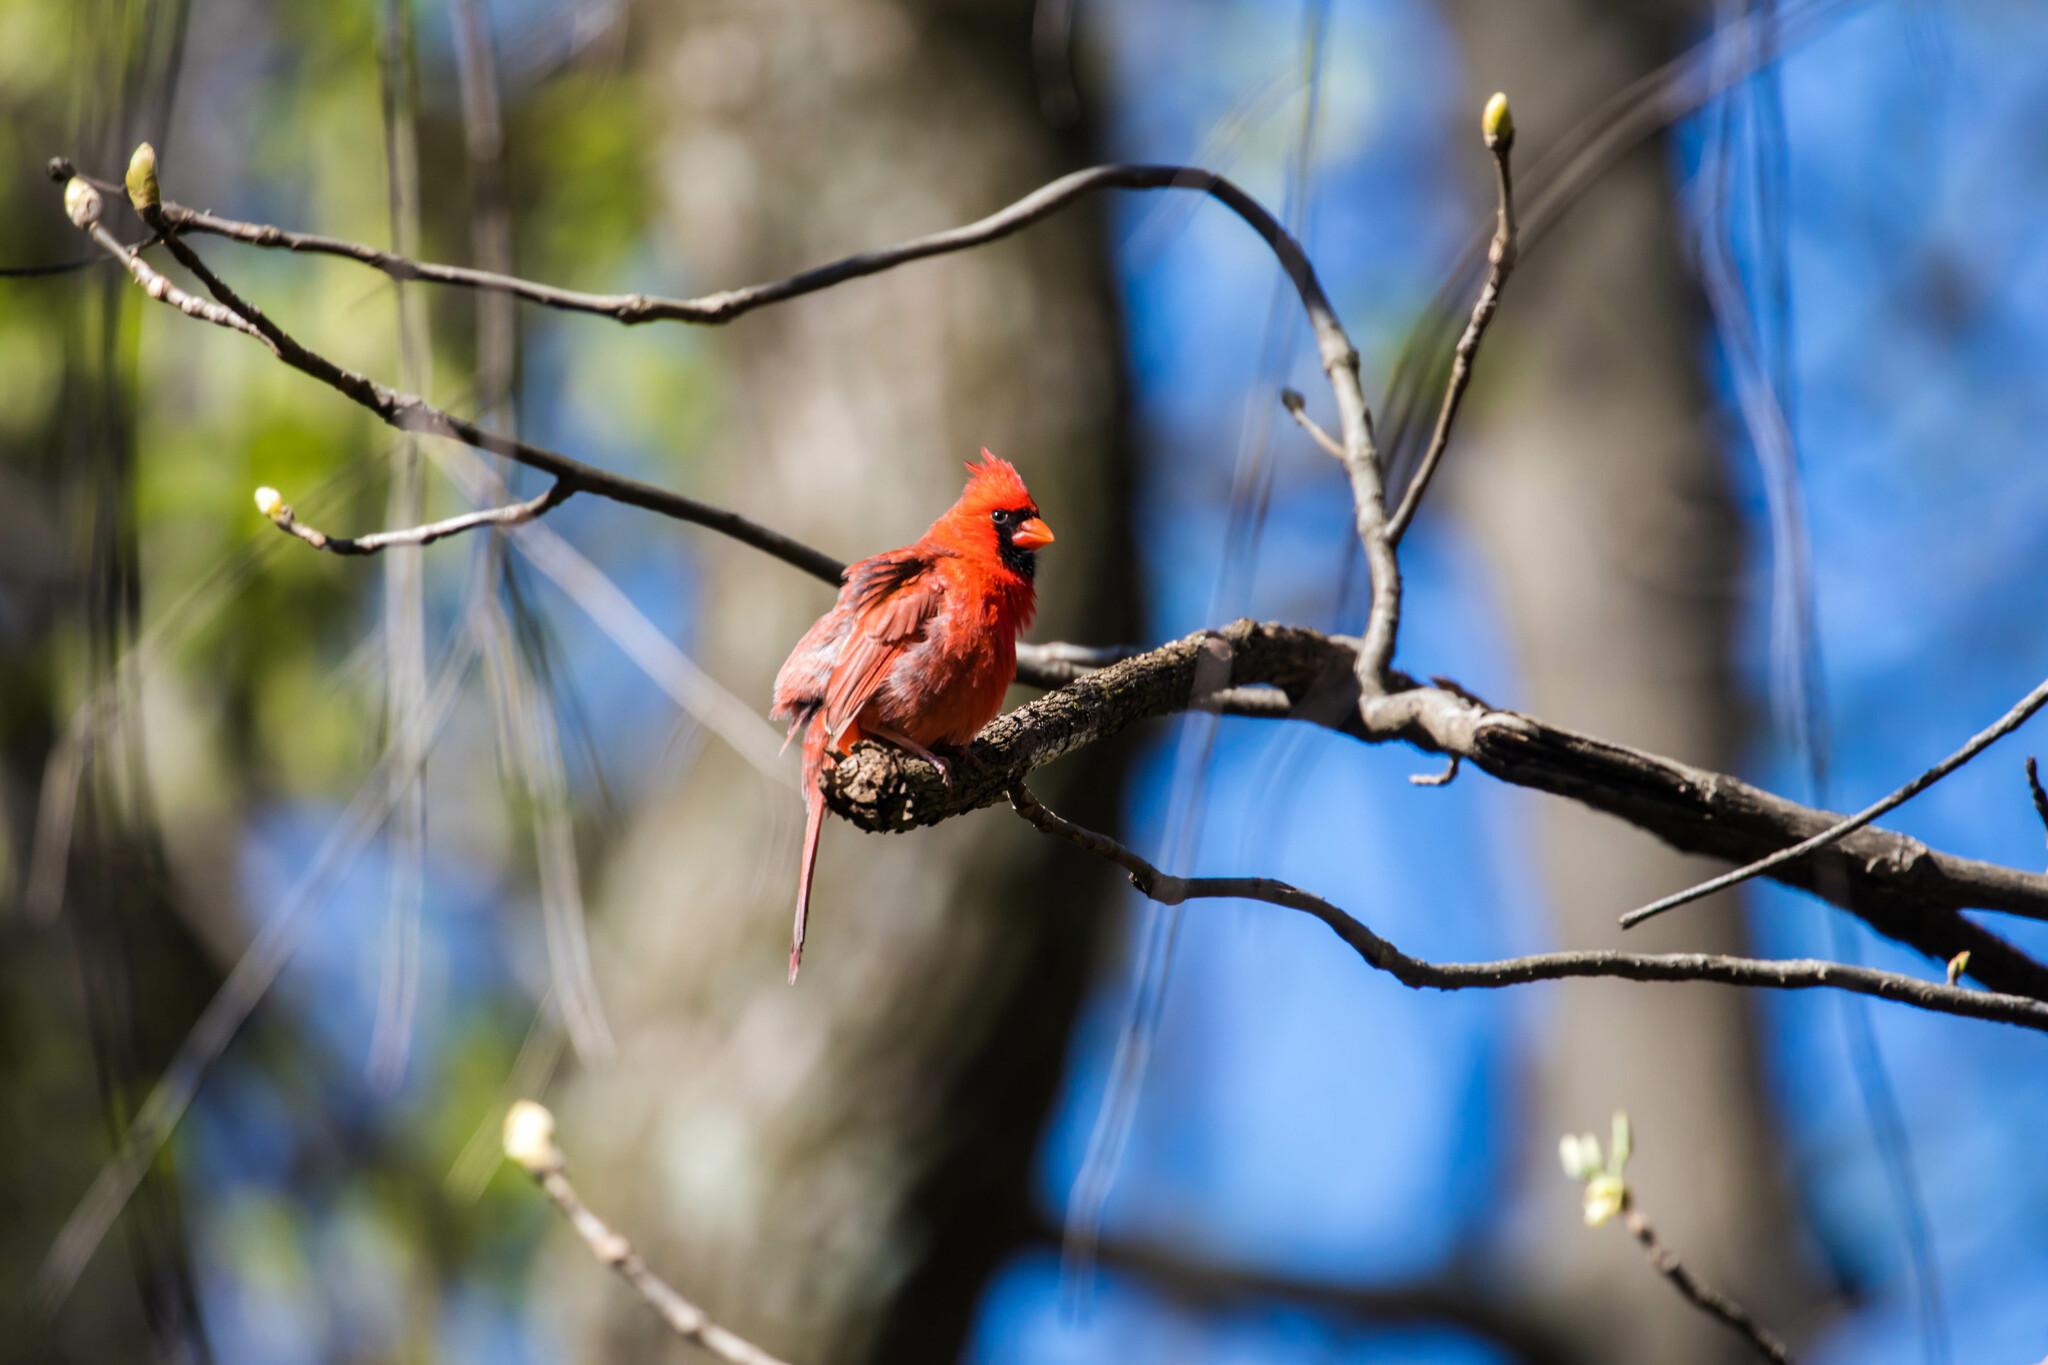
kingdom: Animalia
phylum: Chordata
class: Aves
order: Passeriformes
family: Cardinalidae
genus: Cardinalis
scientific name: Cardinalis cardinalis
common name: Northern cardinal
